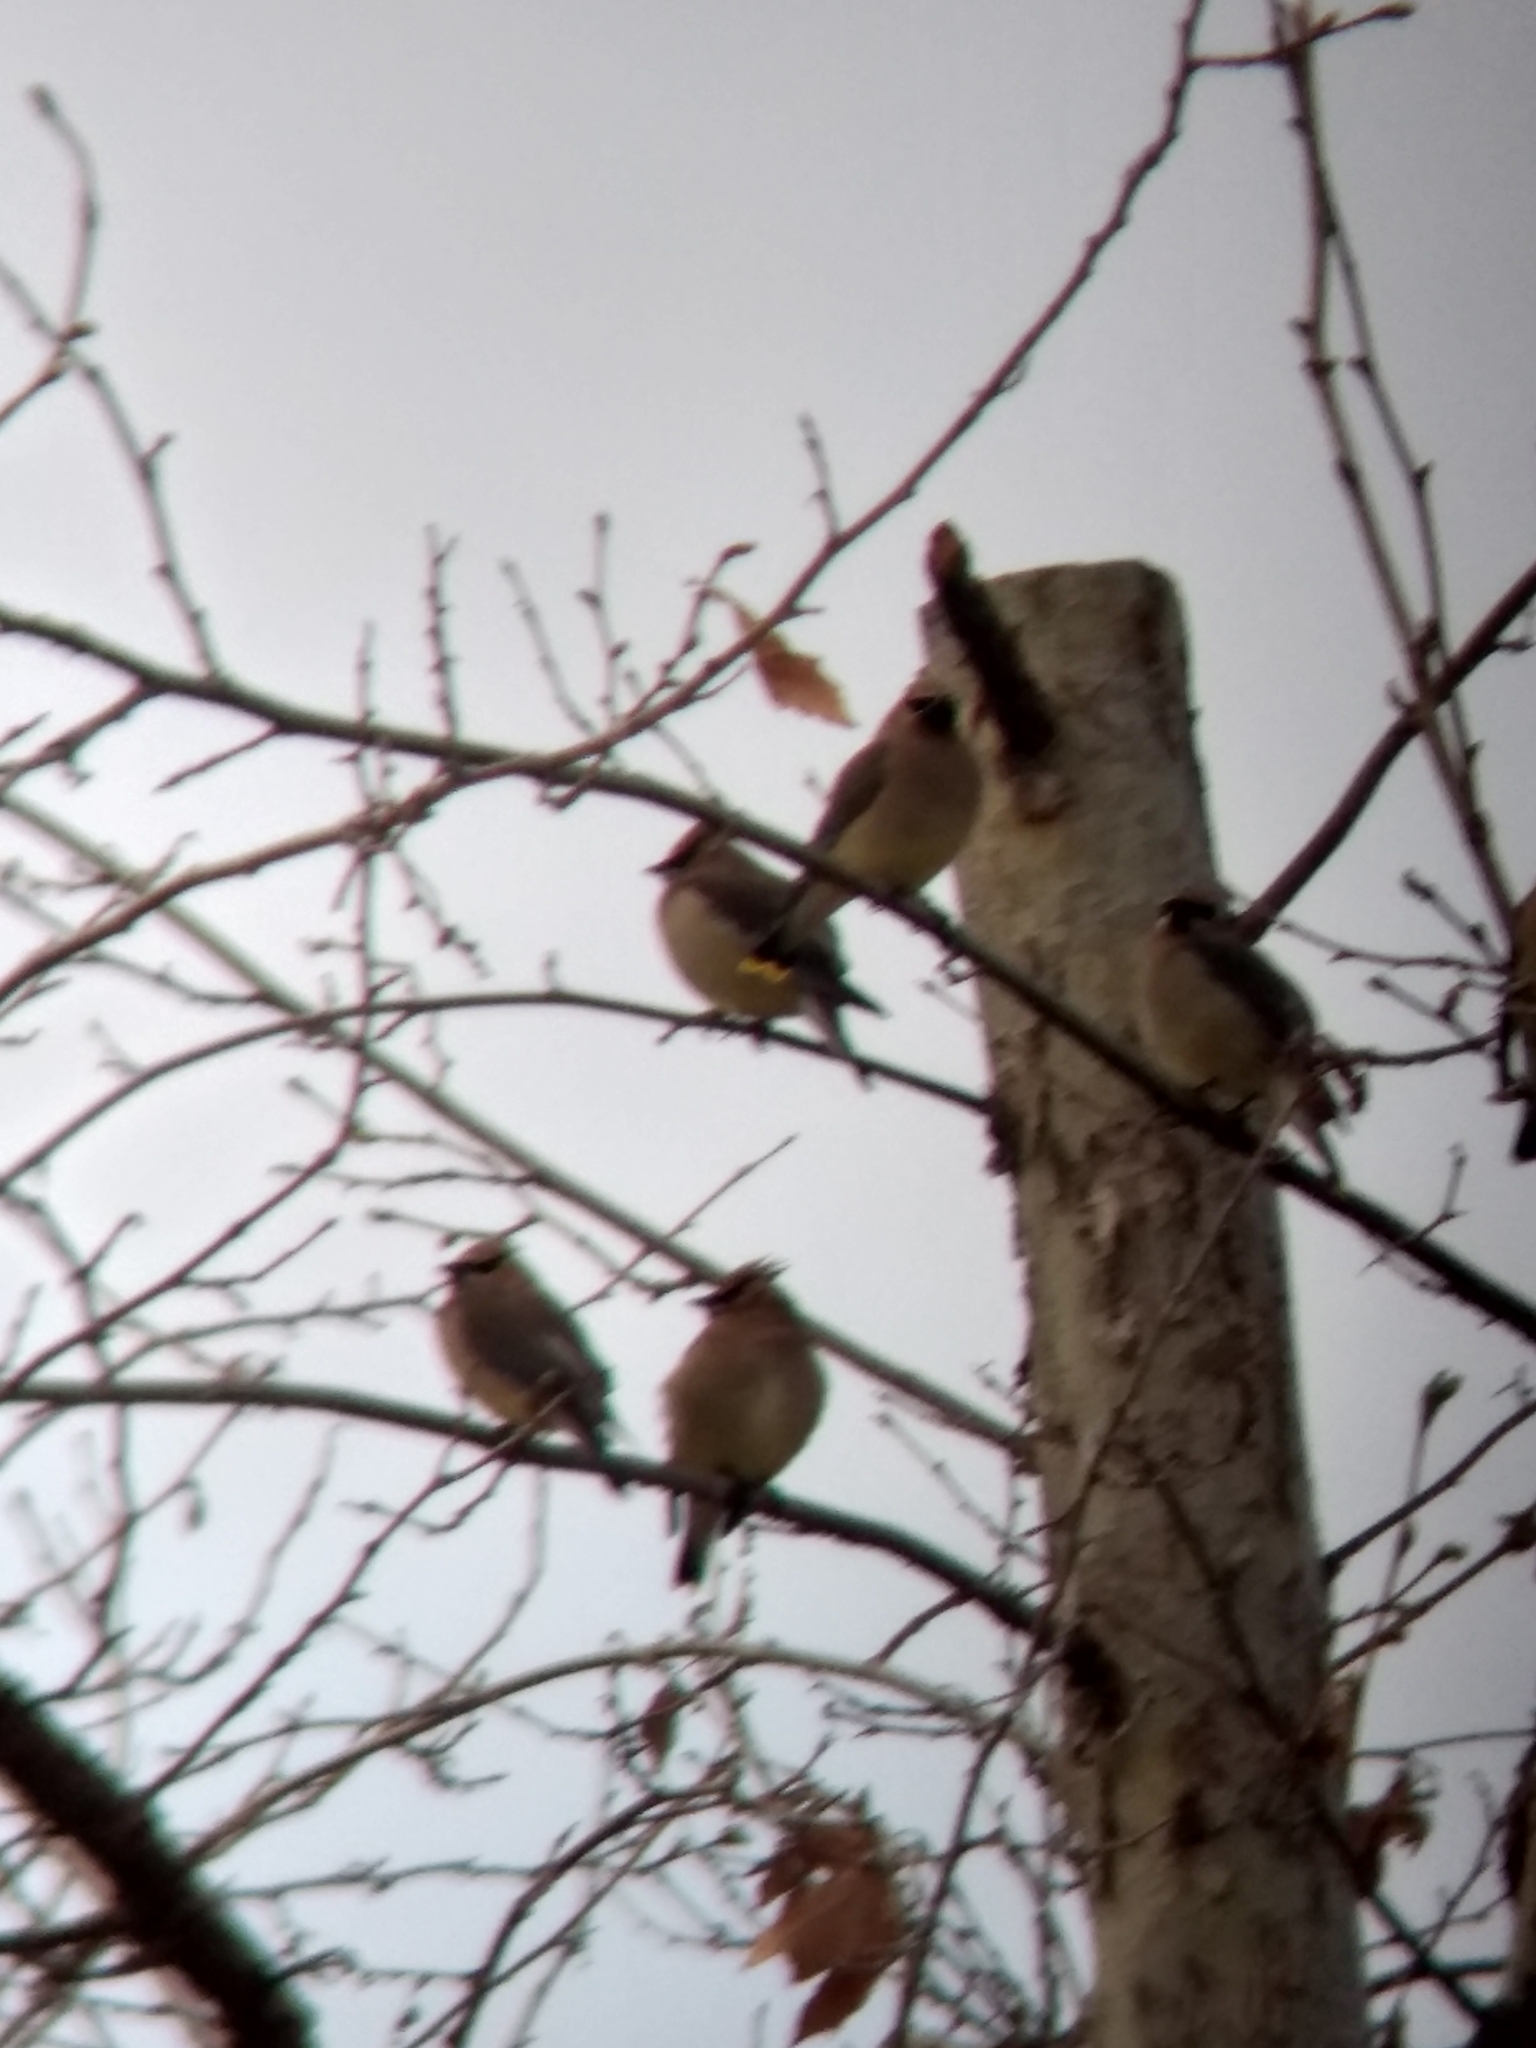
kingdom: Animalia
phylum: Chordata
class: Aves
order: Passeriformes
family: Bombycillidae
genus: Bombycilla
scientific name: Bombycilla cedrorum
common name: Cedar waxwing
